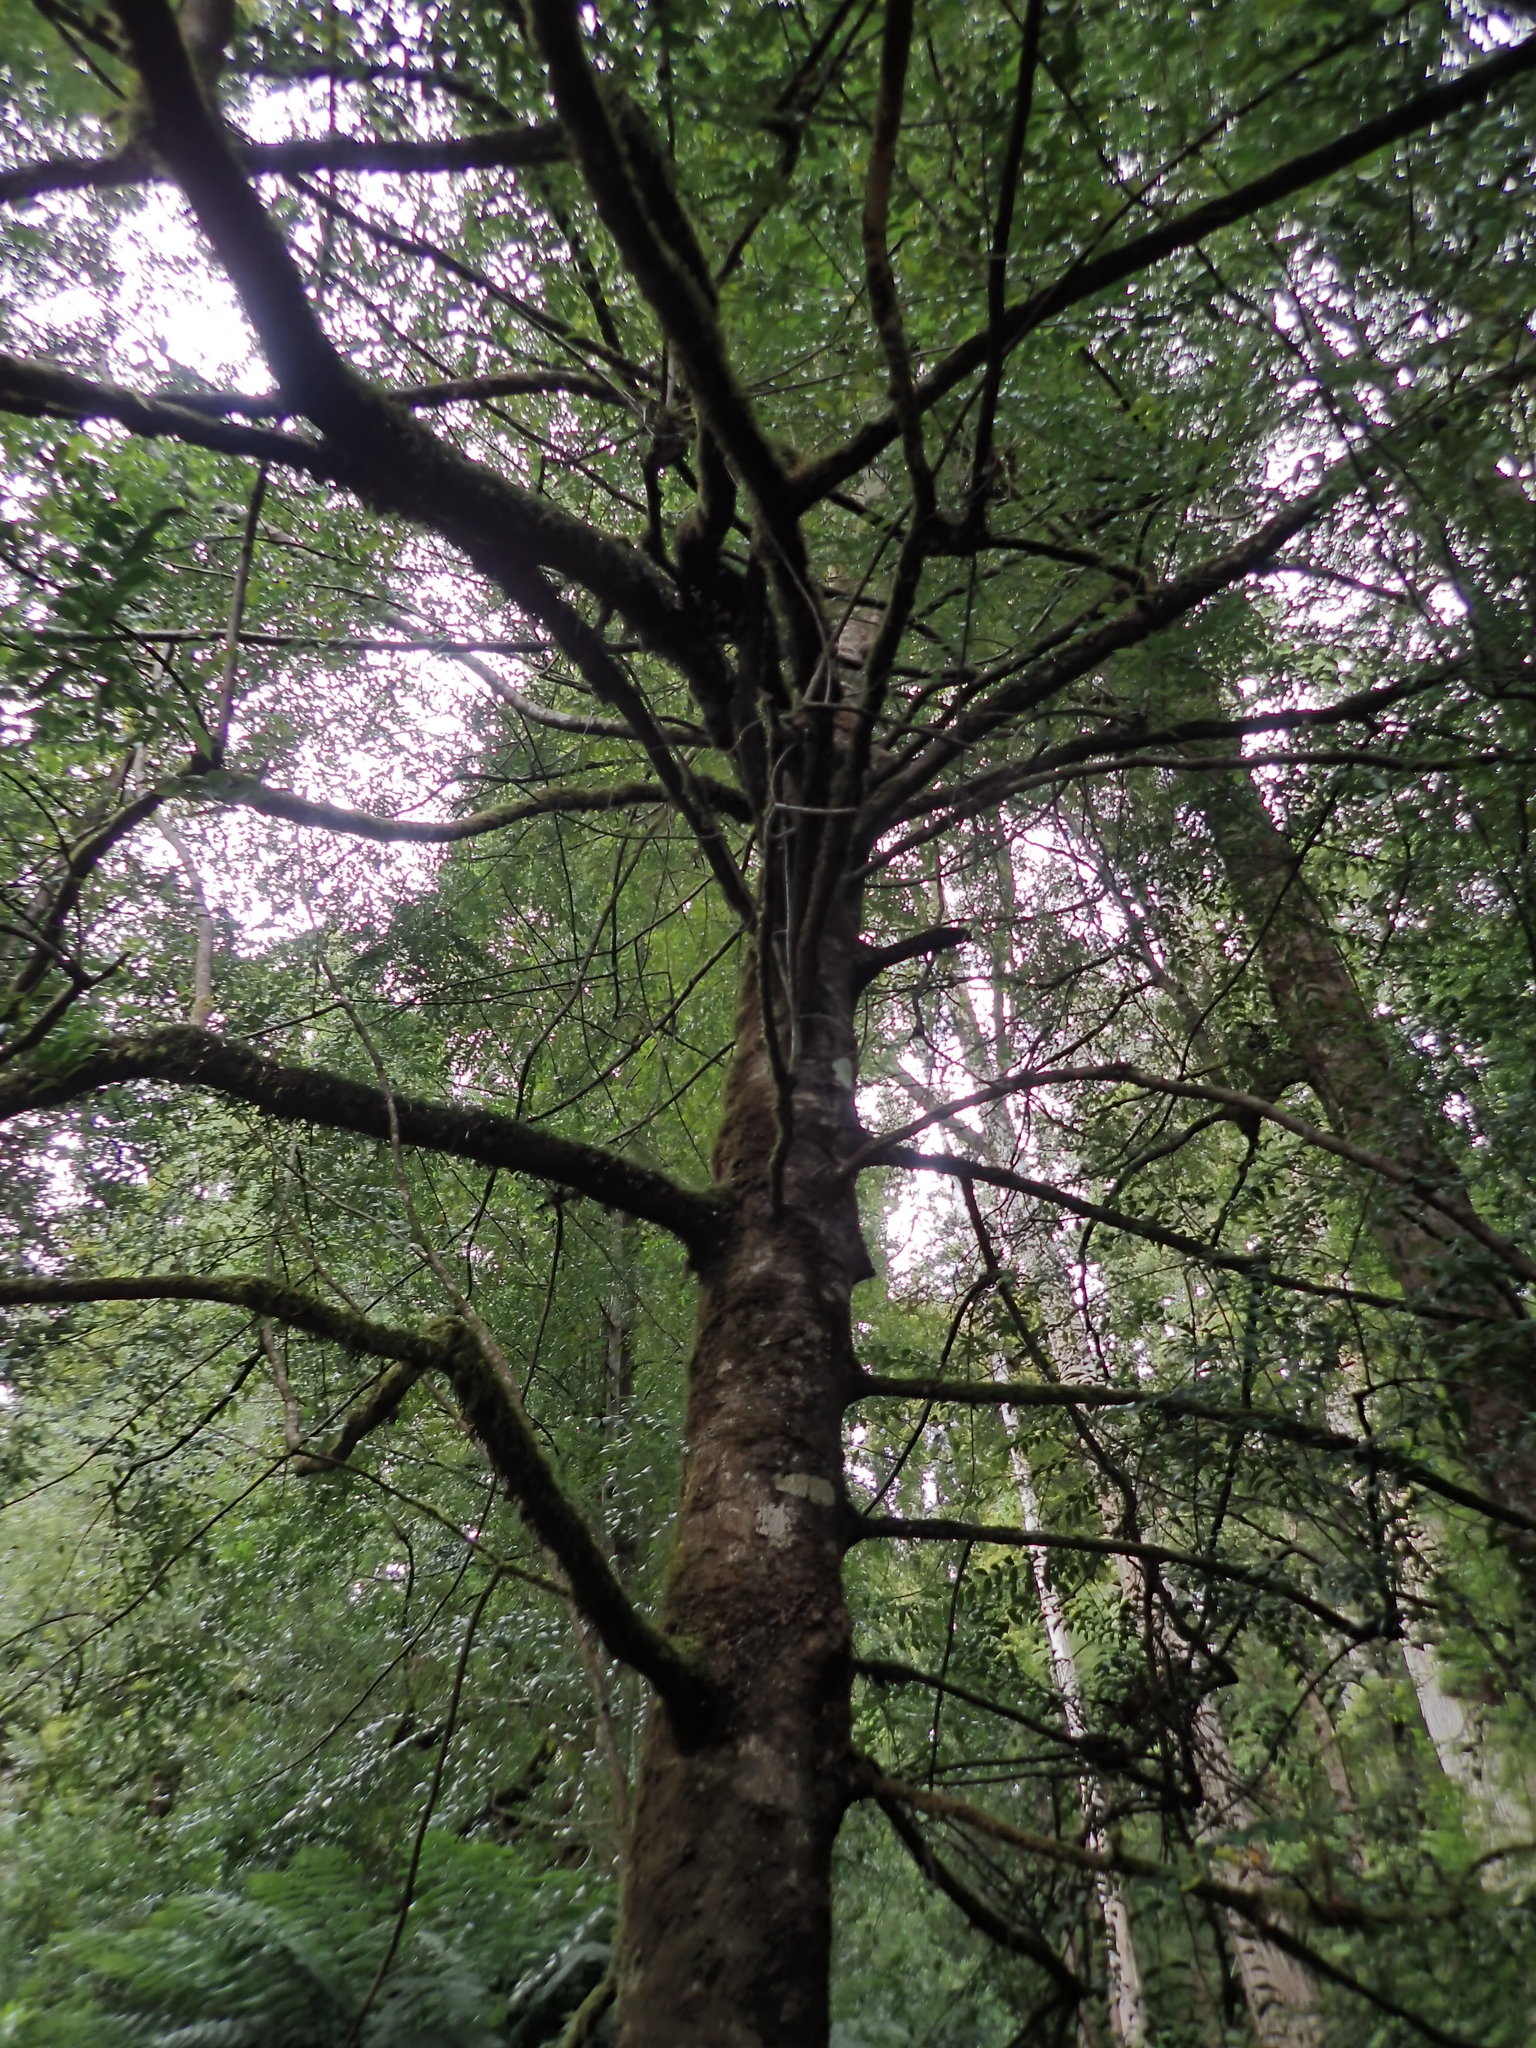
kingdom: Plantae
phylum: Tracheophyta
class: Magnoliopsida
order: Laurales
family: Atherospermataceae
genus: Atherosperma
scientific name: Atherosperma moschatum
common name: Tasmanian-sassafras
